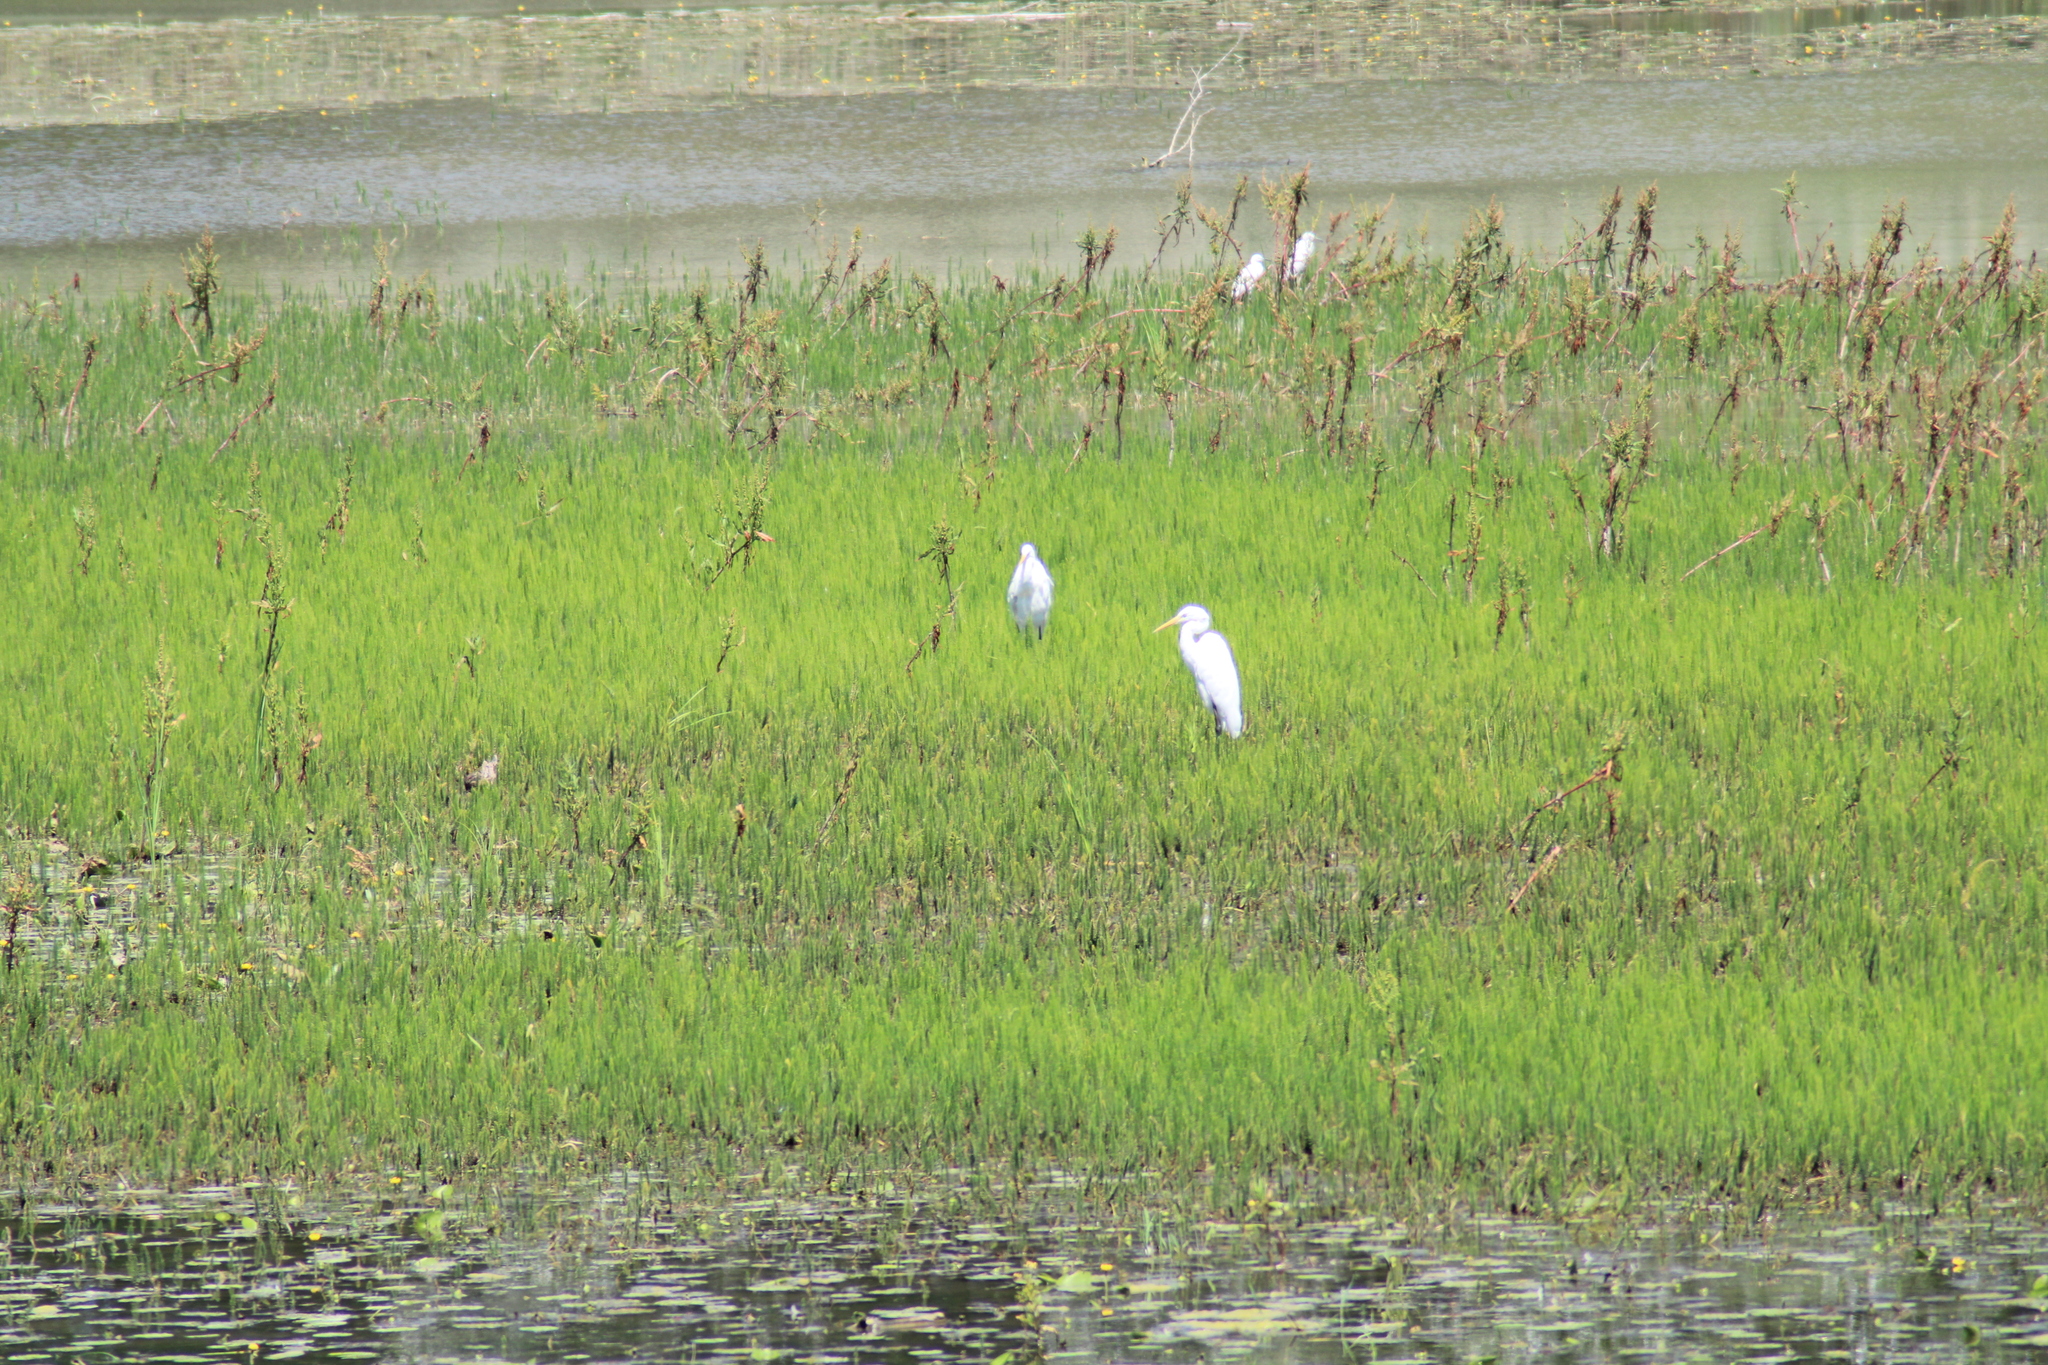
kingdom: Animalia
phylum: Chordata
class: Aves
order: Pelecaniformes
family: Ardeidae
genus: Ardea
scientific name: Ardea alba
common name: Great egret
